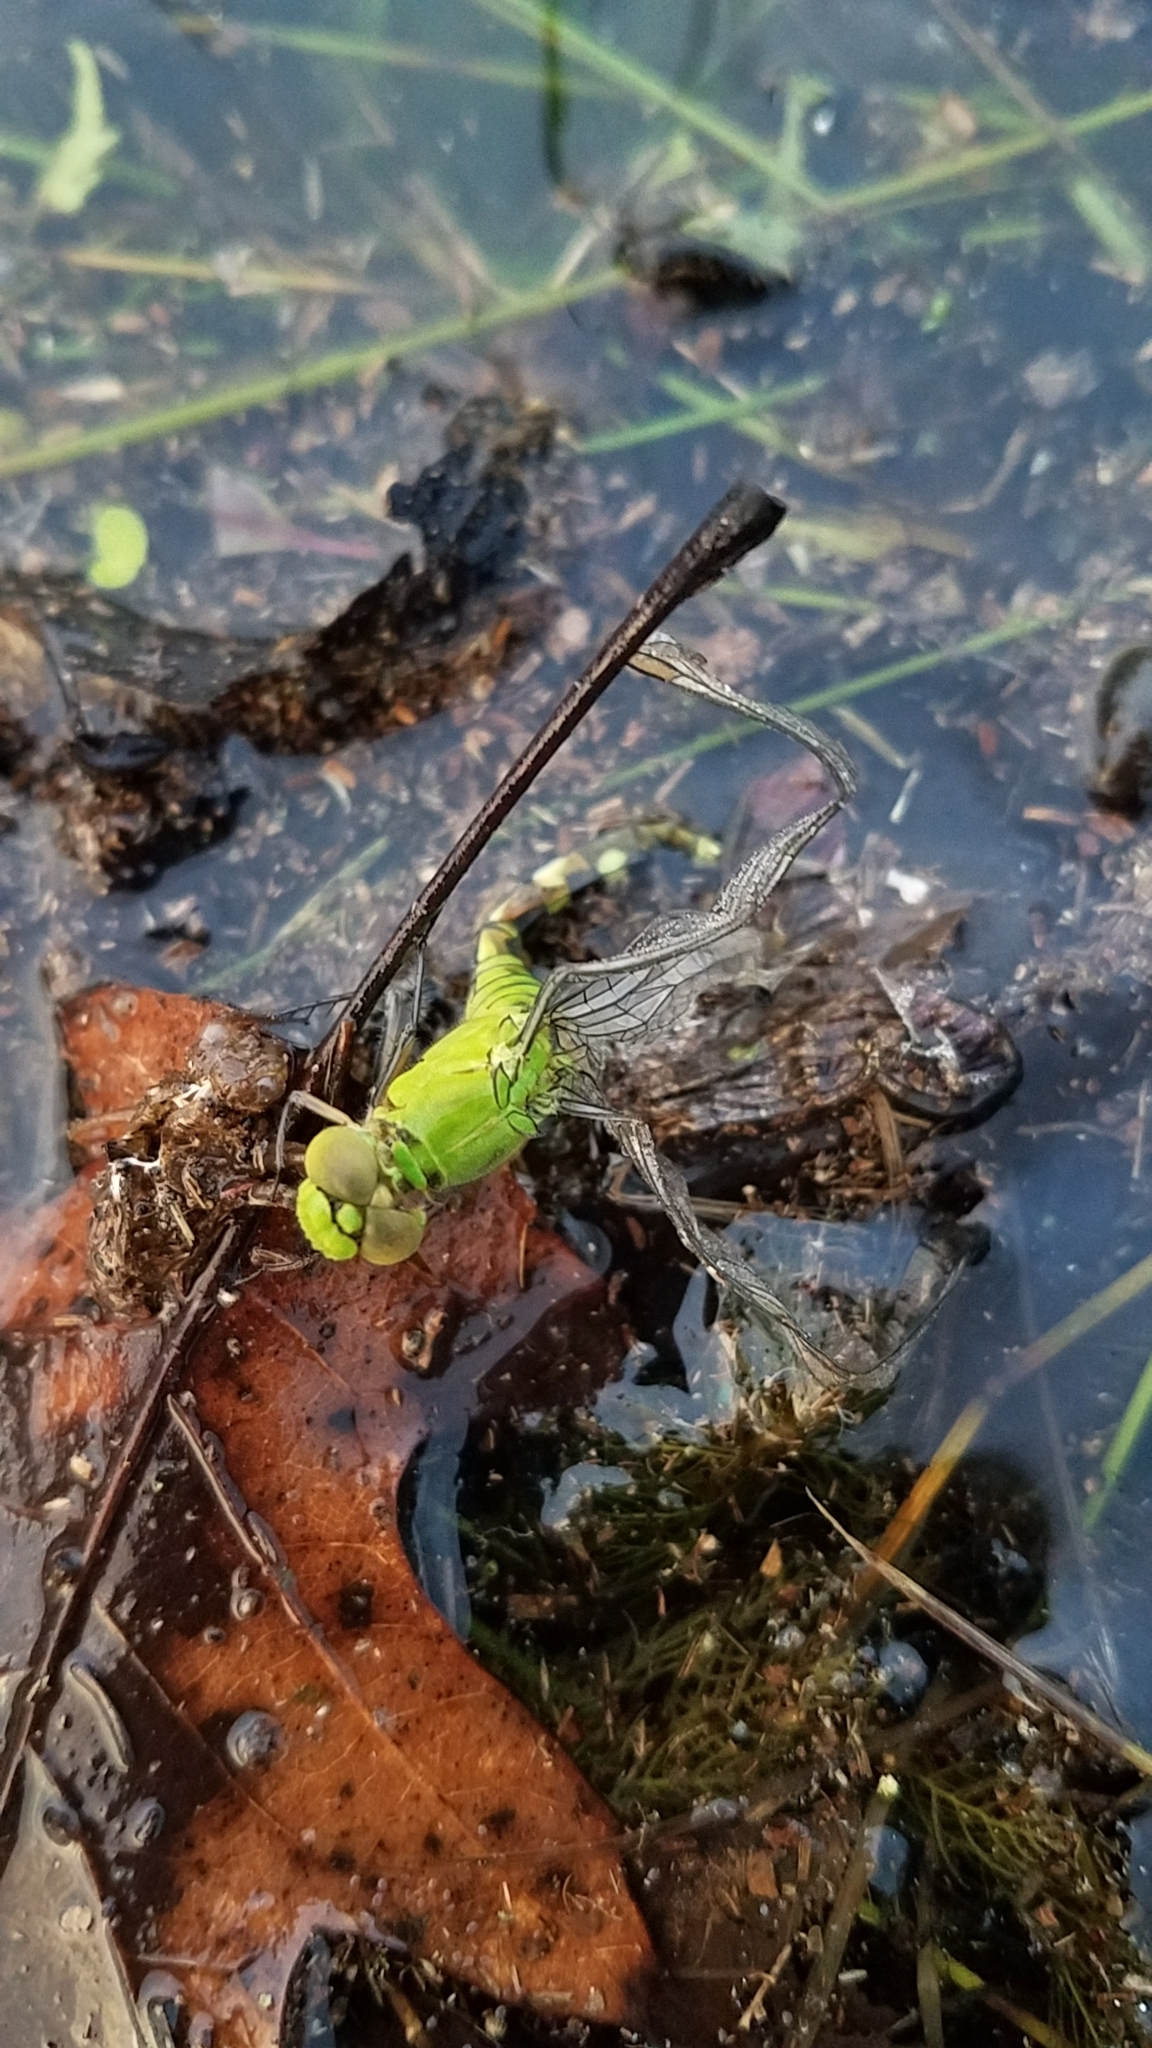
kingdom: Animalia
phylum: Arthropoda
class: Insecta
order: Odonata
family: Libellulidae
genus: Erythemis
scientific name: Erythemis simplicicollis
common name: Eastern pondhawk
